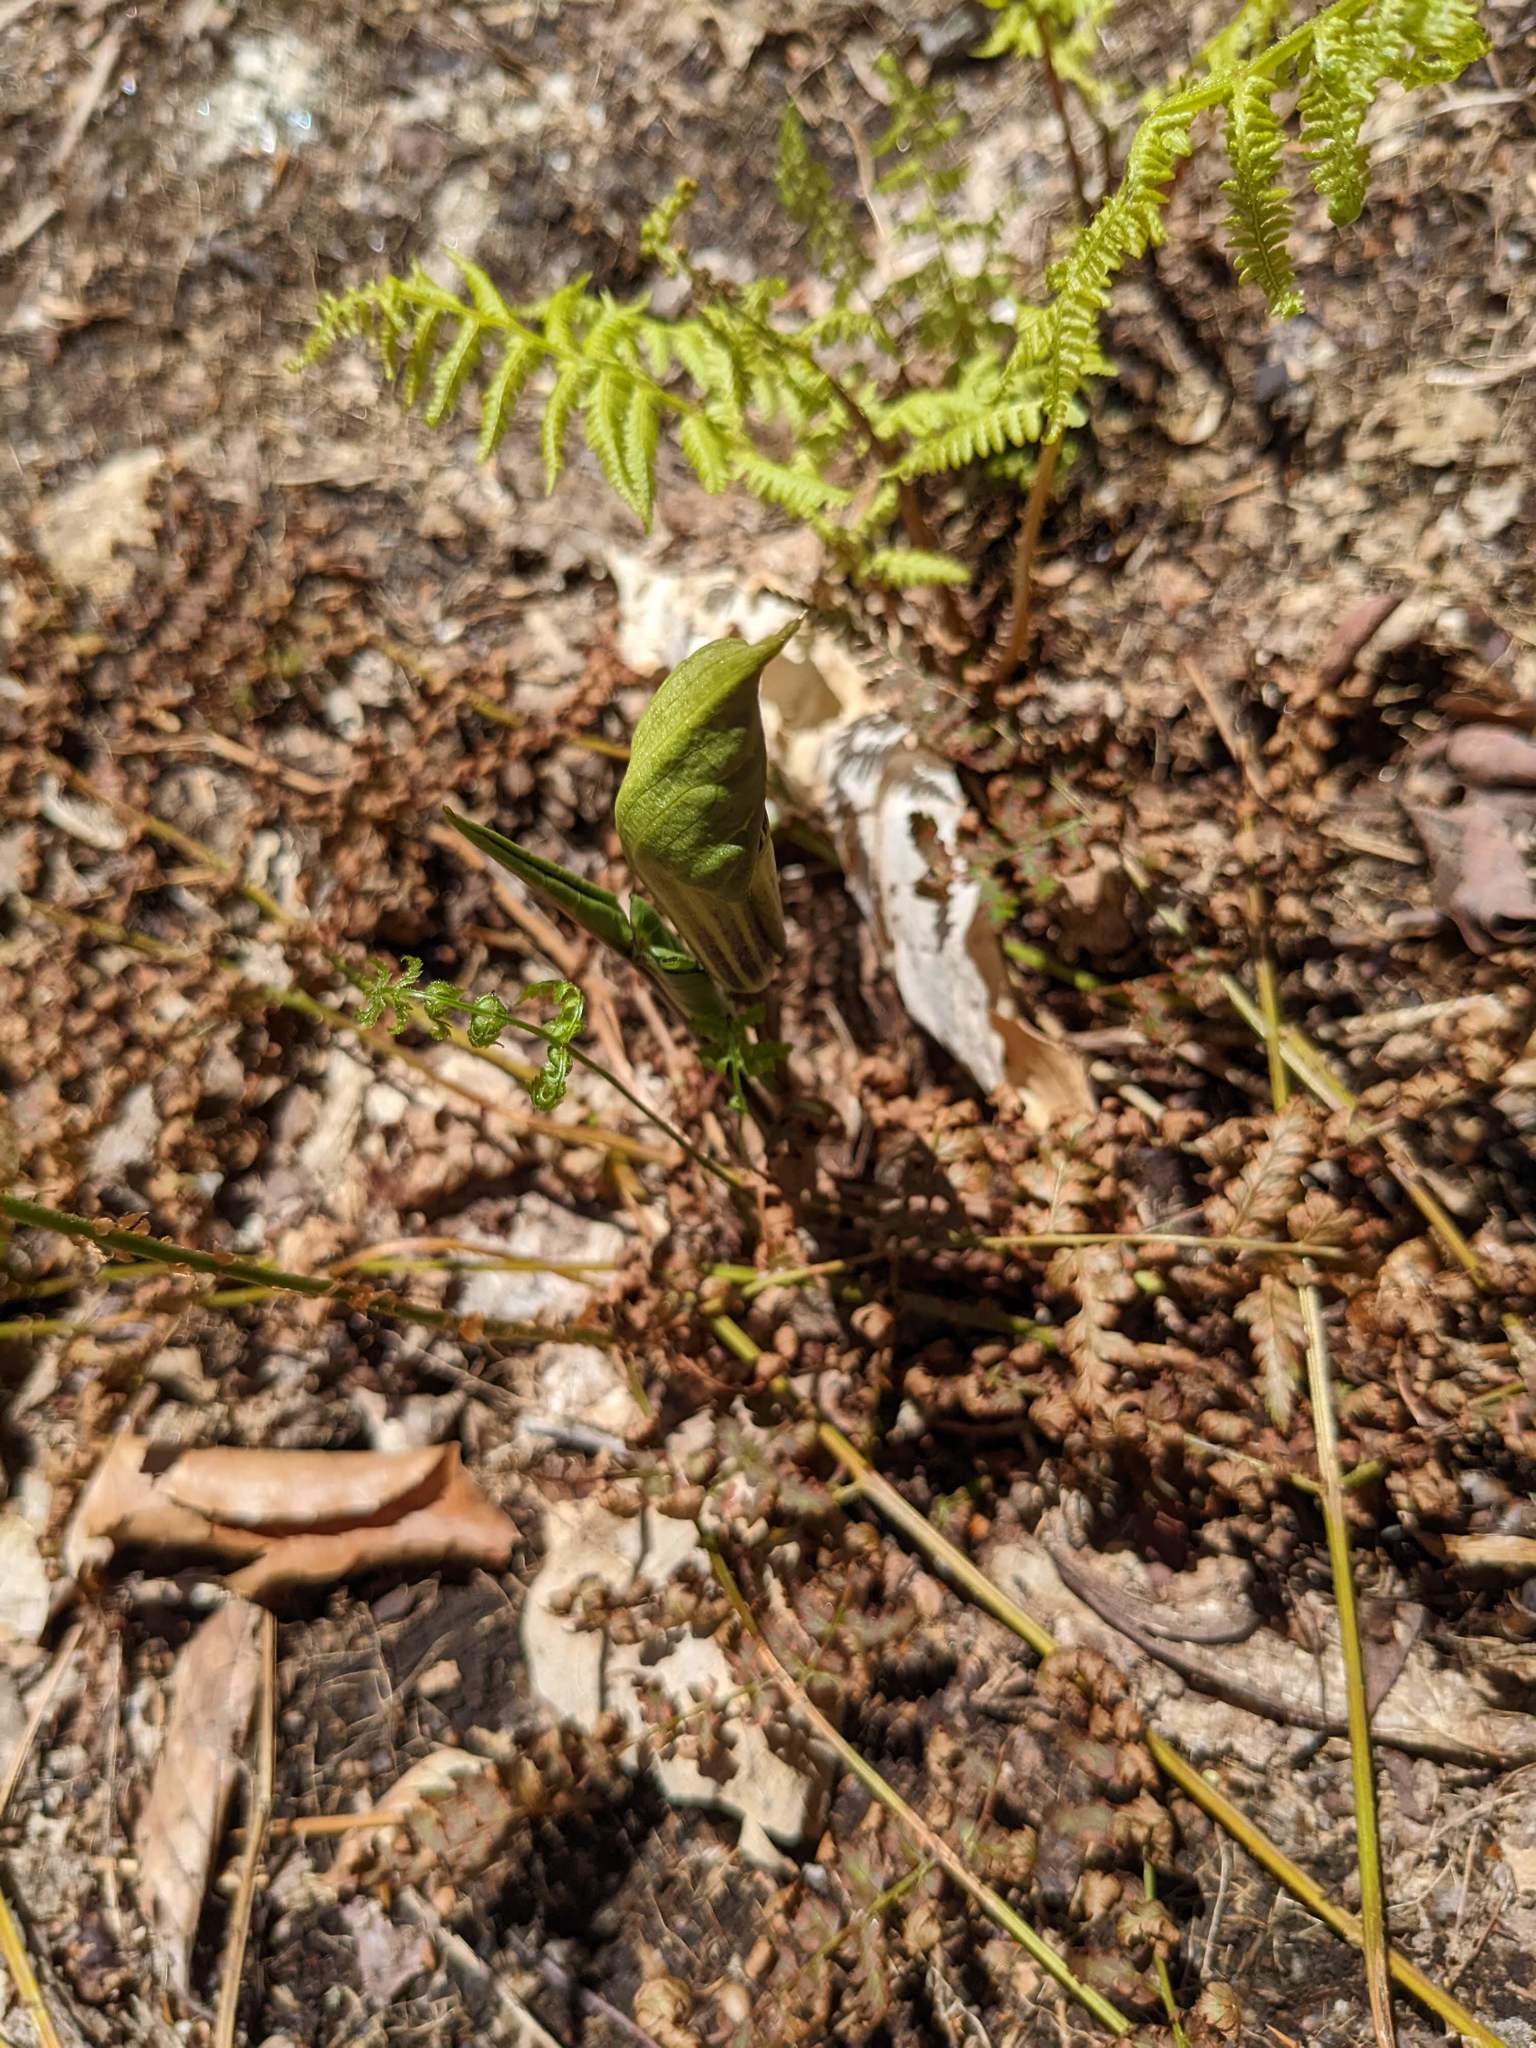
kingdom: Plantae
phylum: Tracheophyta
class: Liliopsida
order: Alismatales
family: Araceae
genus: Arisaema
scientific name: Arisaema triphyllum
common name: Jack-in-the-pulpit
